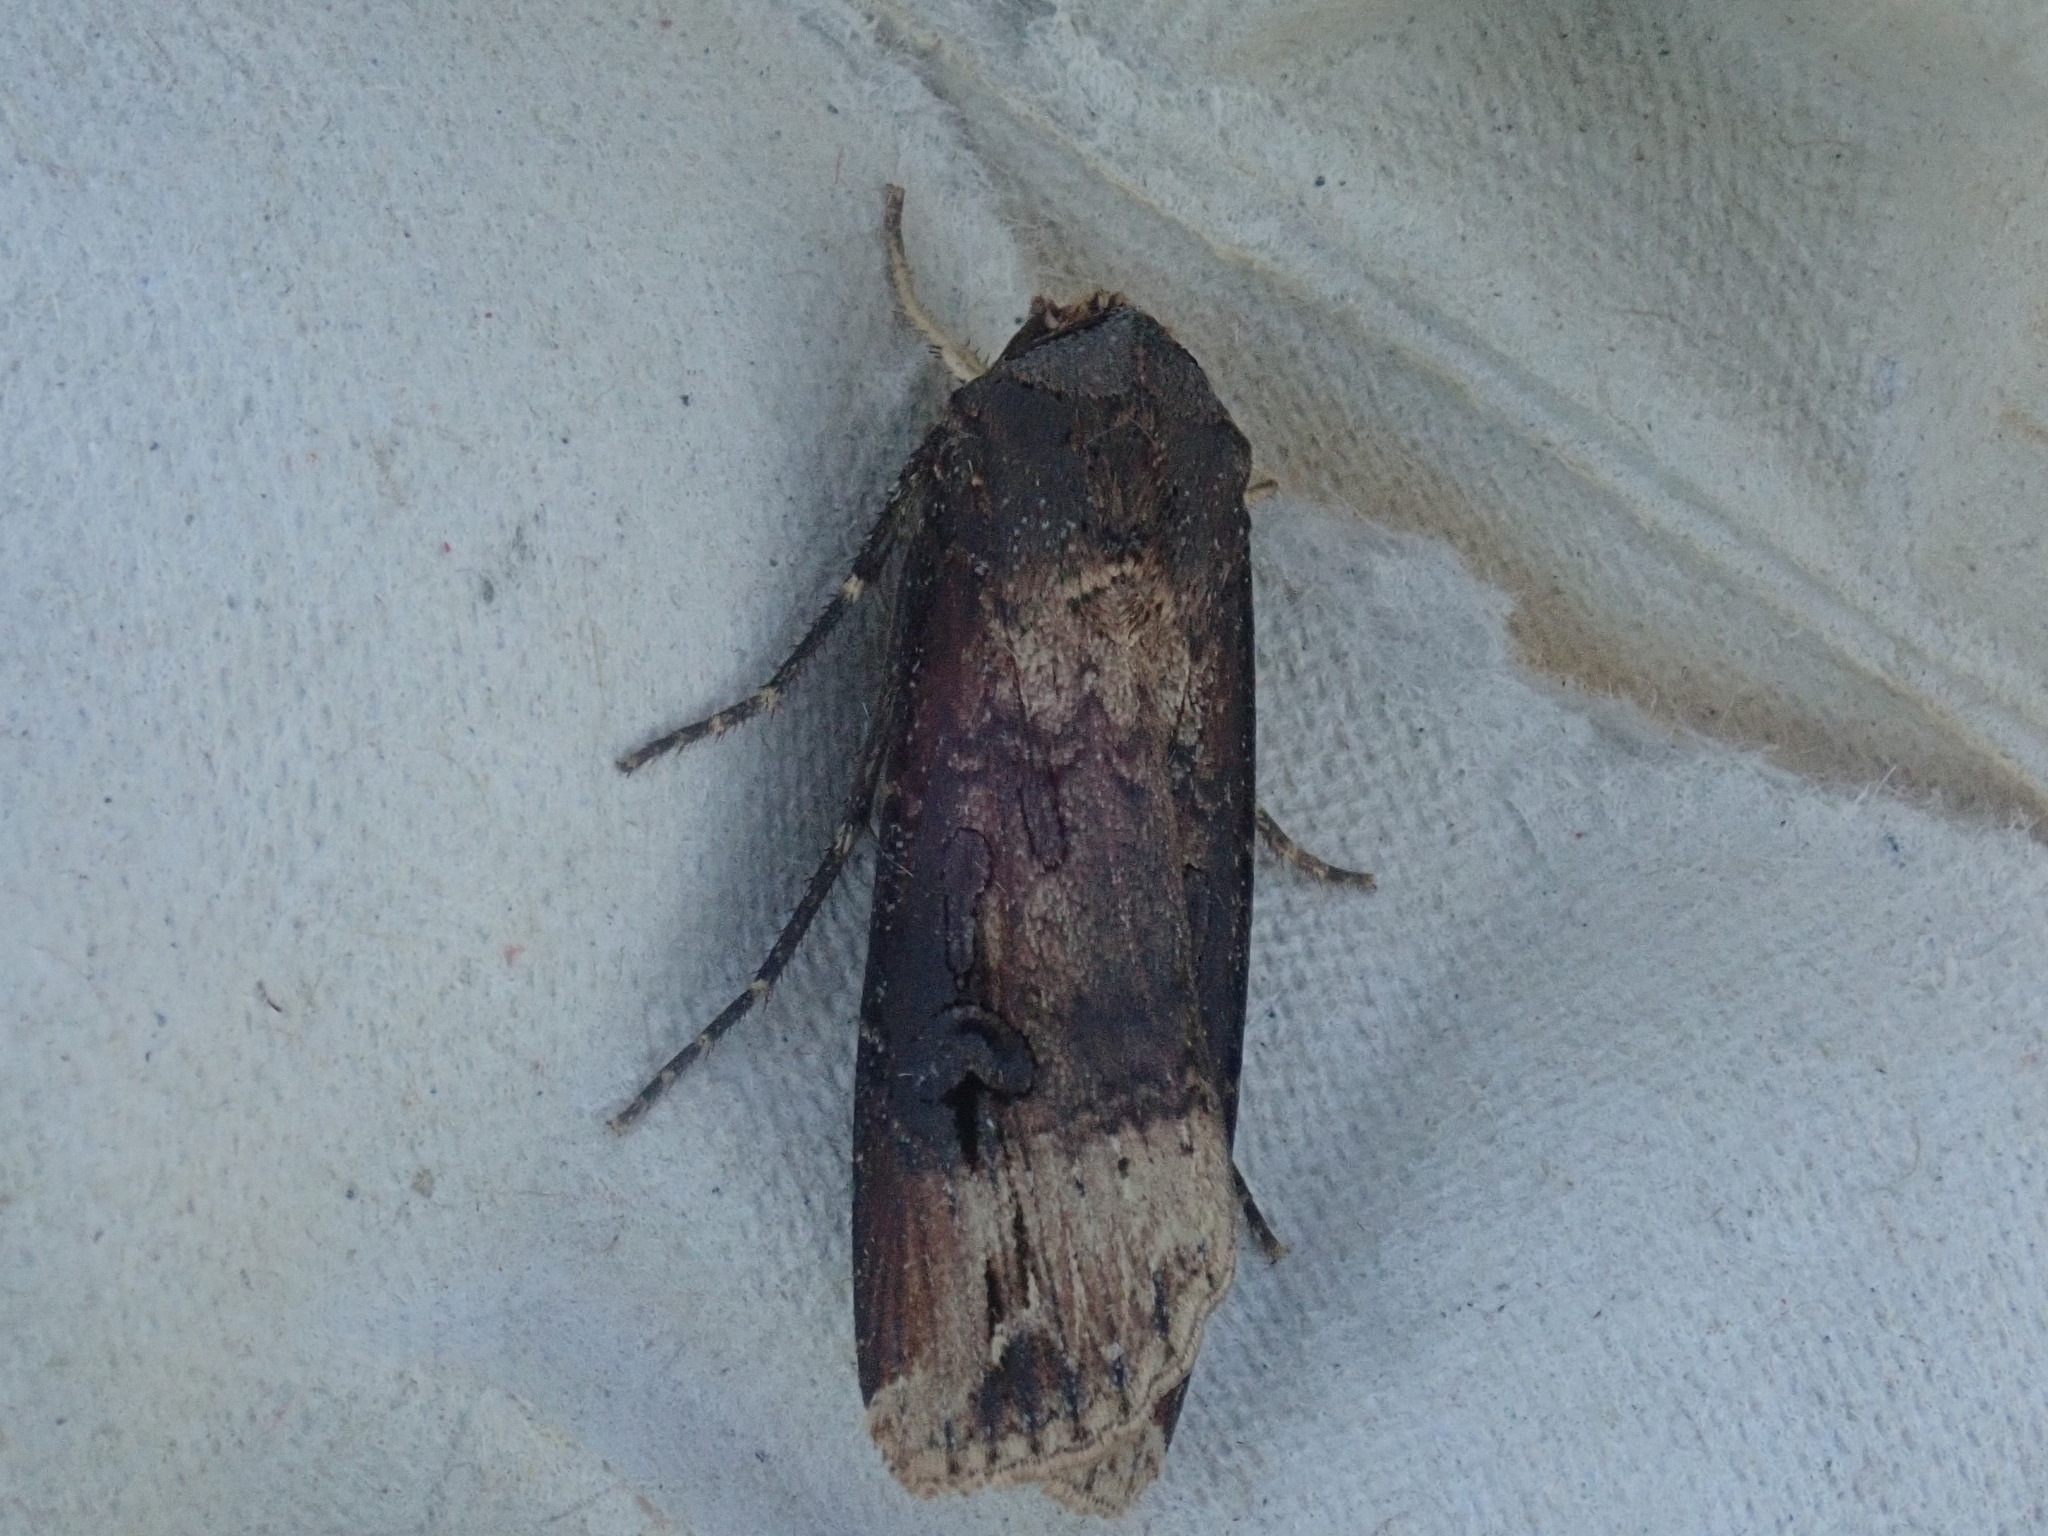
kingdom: Animalia
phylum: Arthropoda
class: Insecta
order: Lepidoptera
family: Noctuidae
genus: Agrotis
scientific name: Agrotis ipsilon
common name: Dark sword-grass
